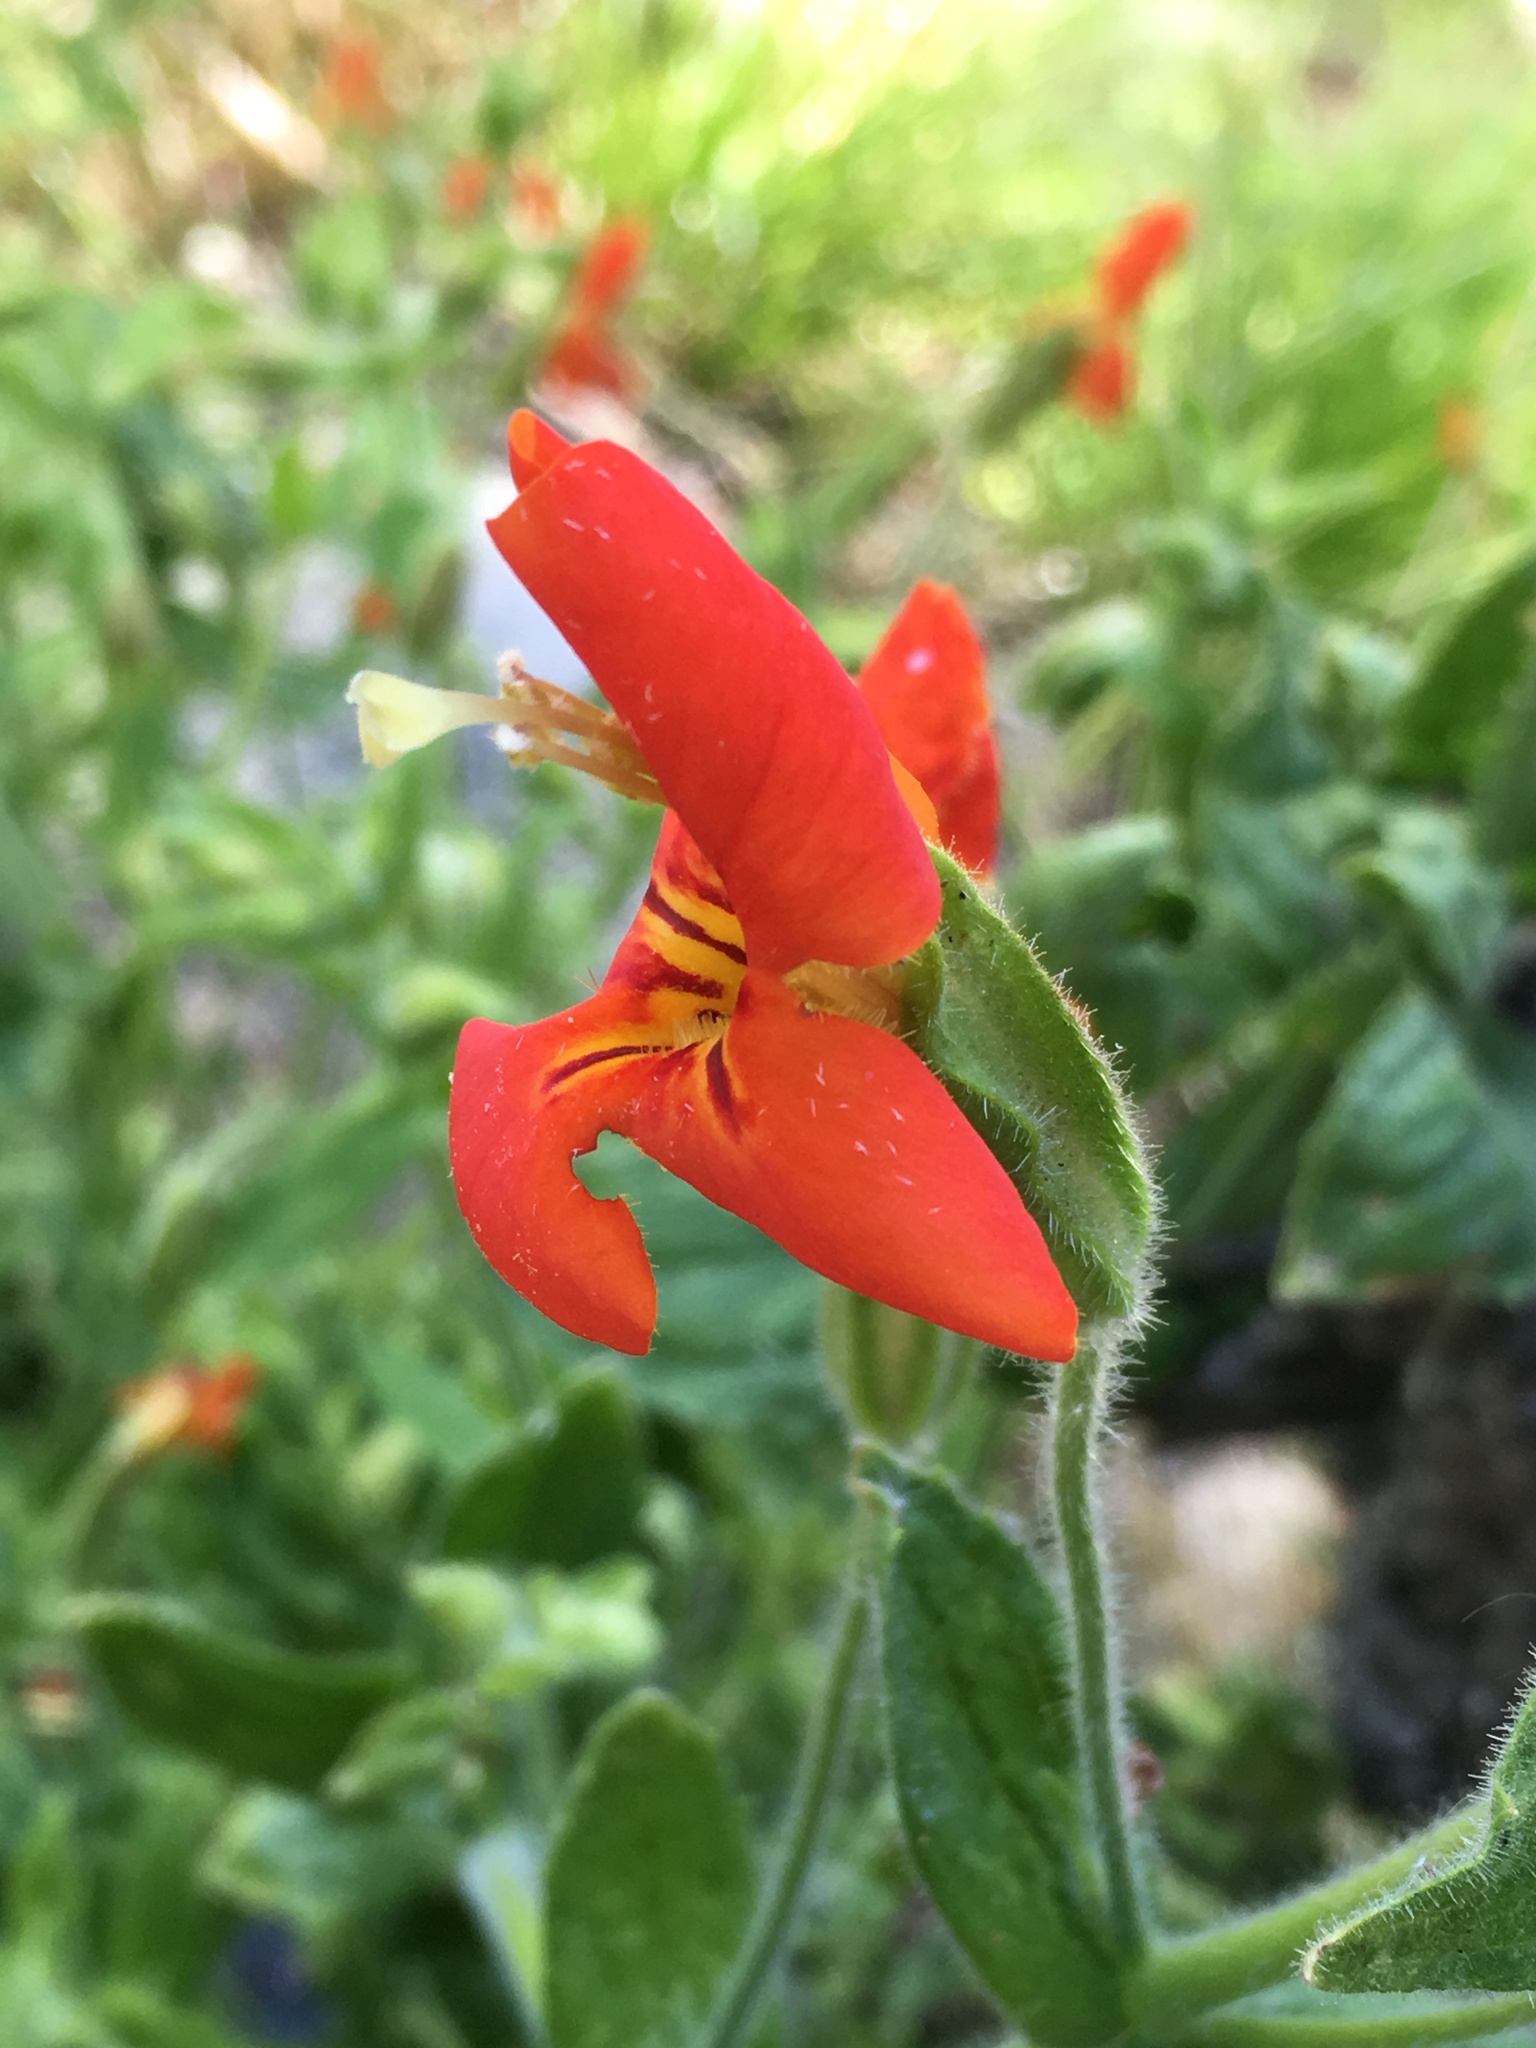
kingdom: Plantae
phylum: Tracheophyta
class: Magnoliopsida
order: Lamiales
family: Phrymaceae
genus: Erythranthe
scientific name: Erythranthe cardinalis
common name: Scarlet monkey-flower
